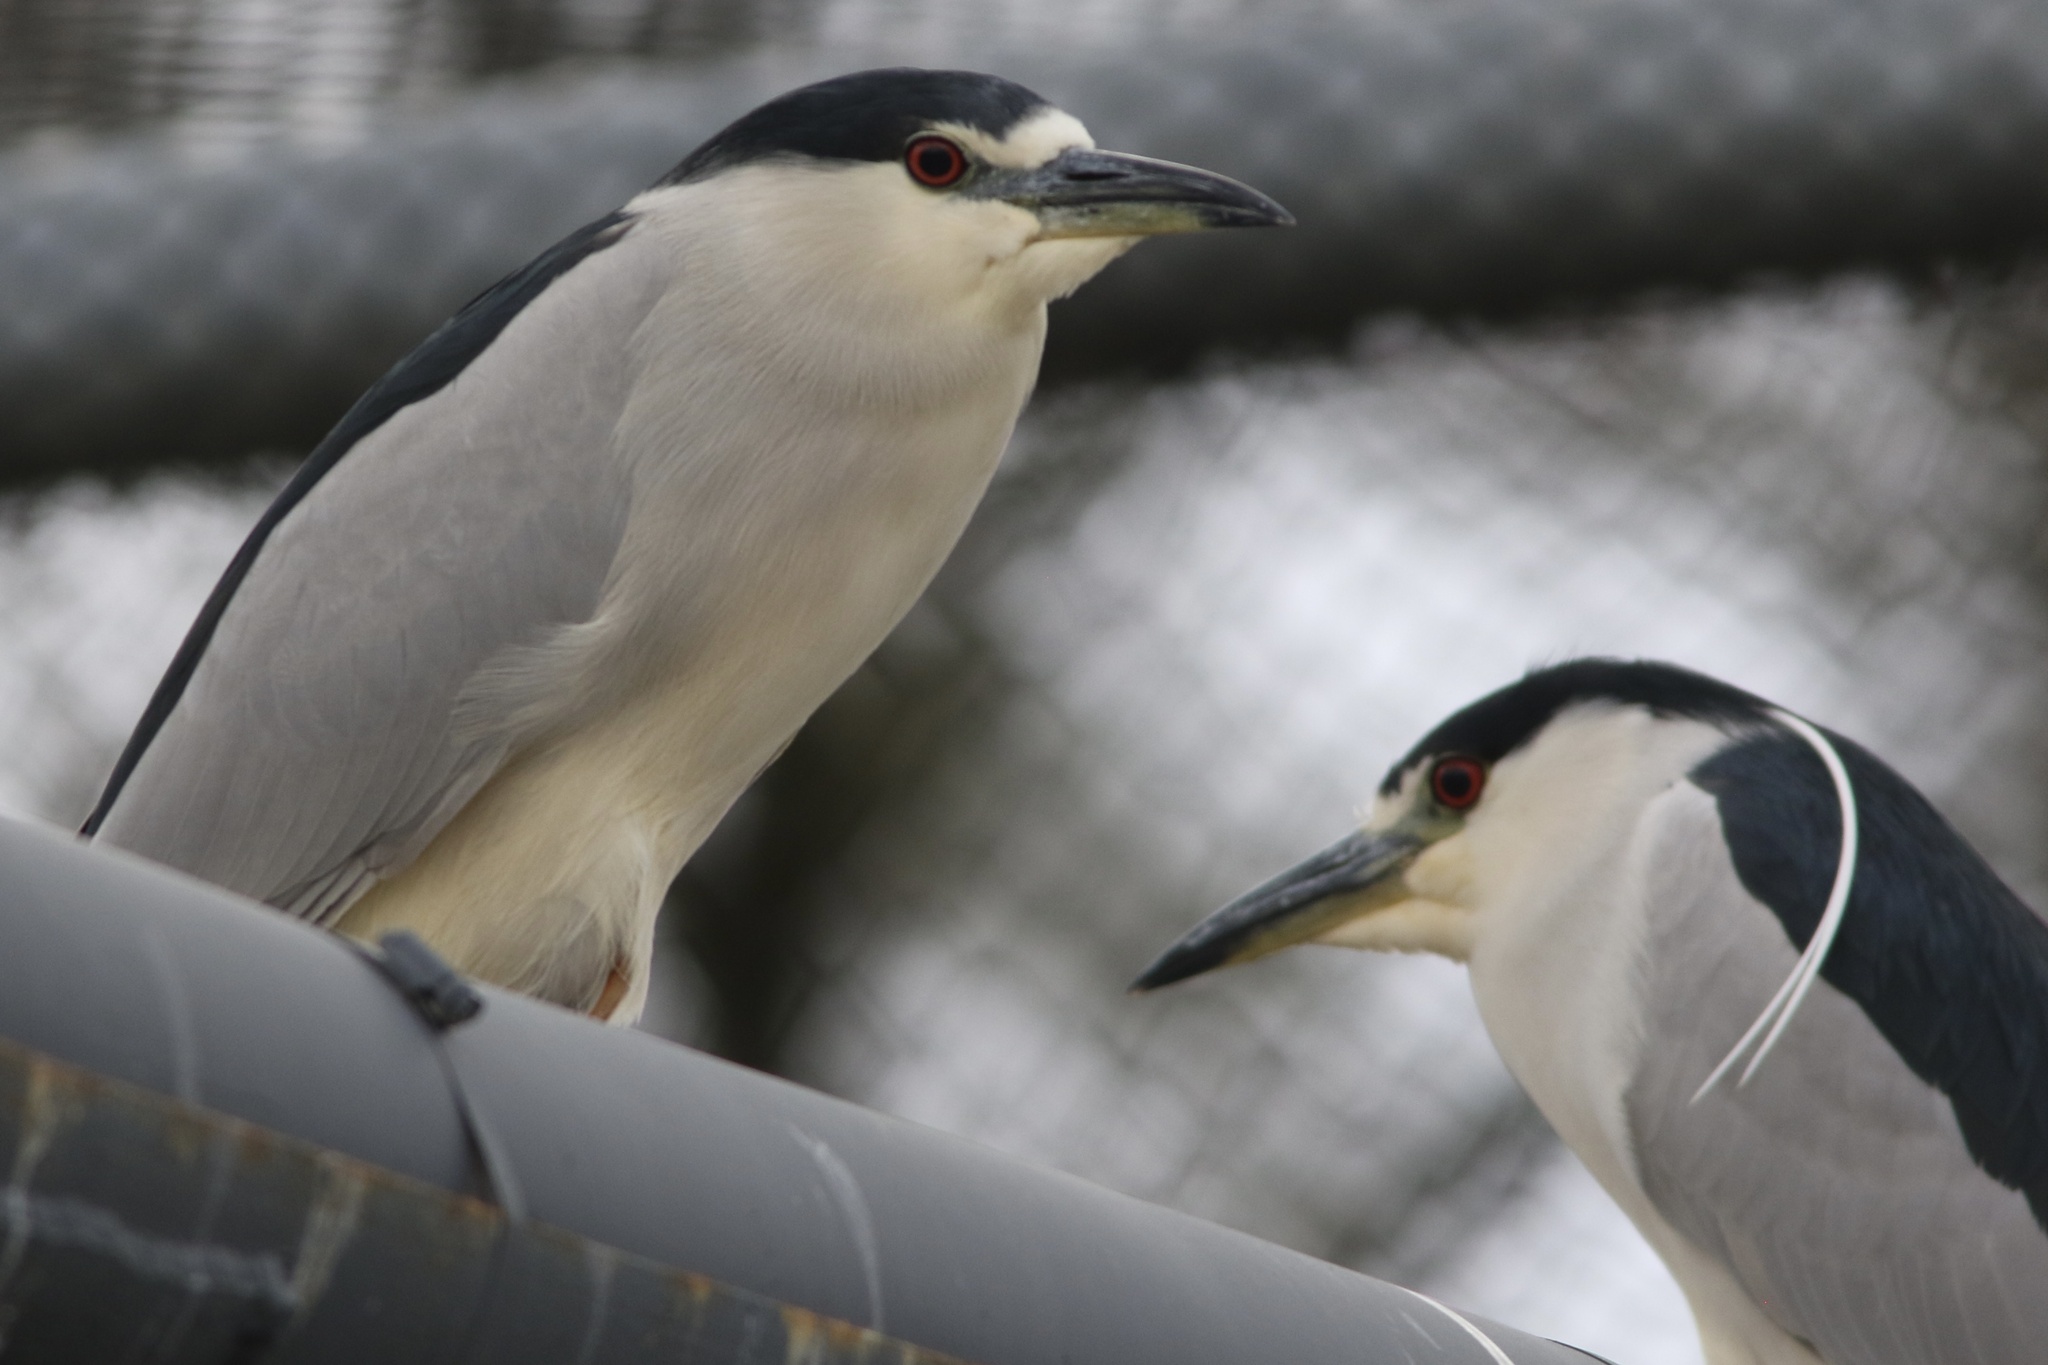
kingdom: Animalia
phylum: Chordata
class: Aves
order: Pelecaniformes
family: Ardeidae
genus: Nycticorax
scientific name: Nycticorax nycticorax
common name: Black-crowned night heron
